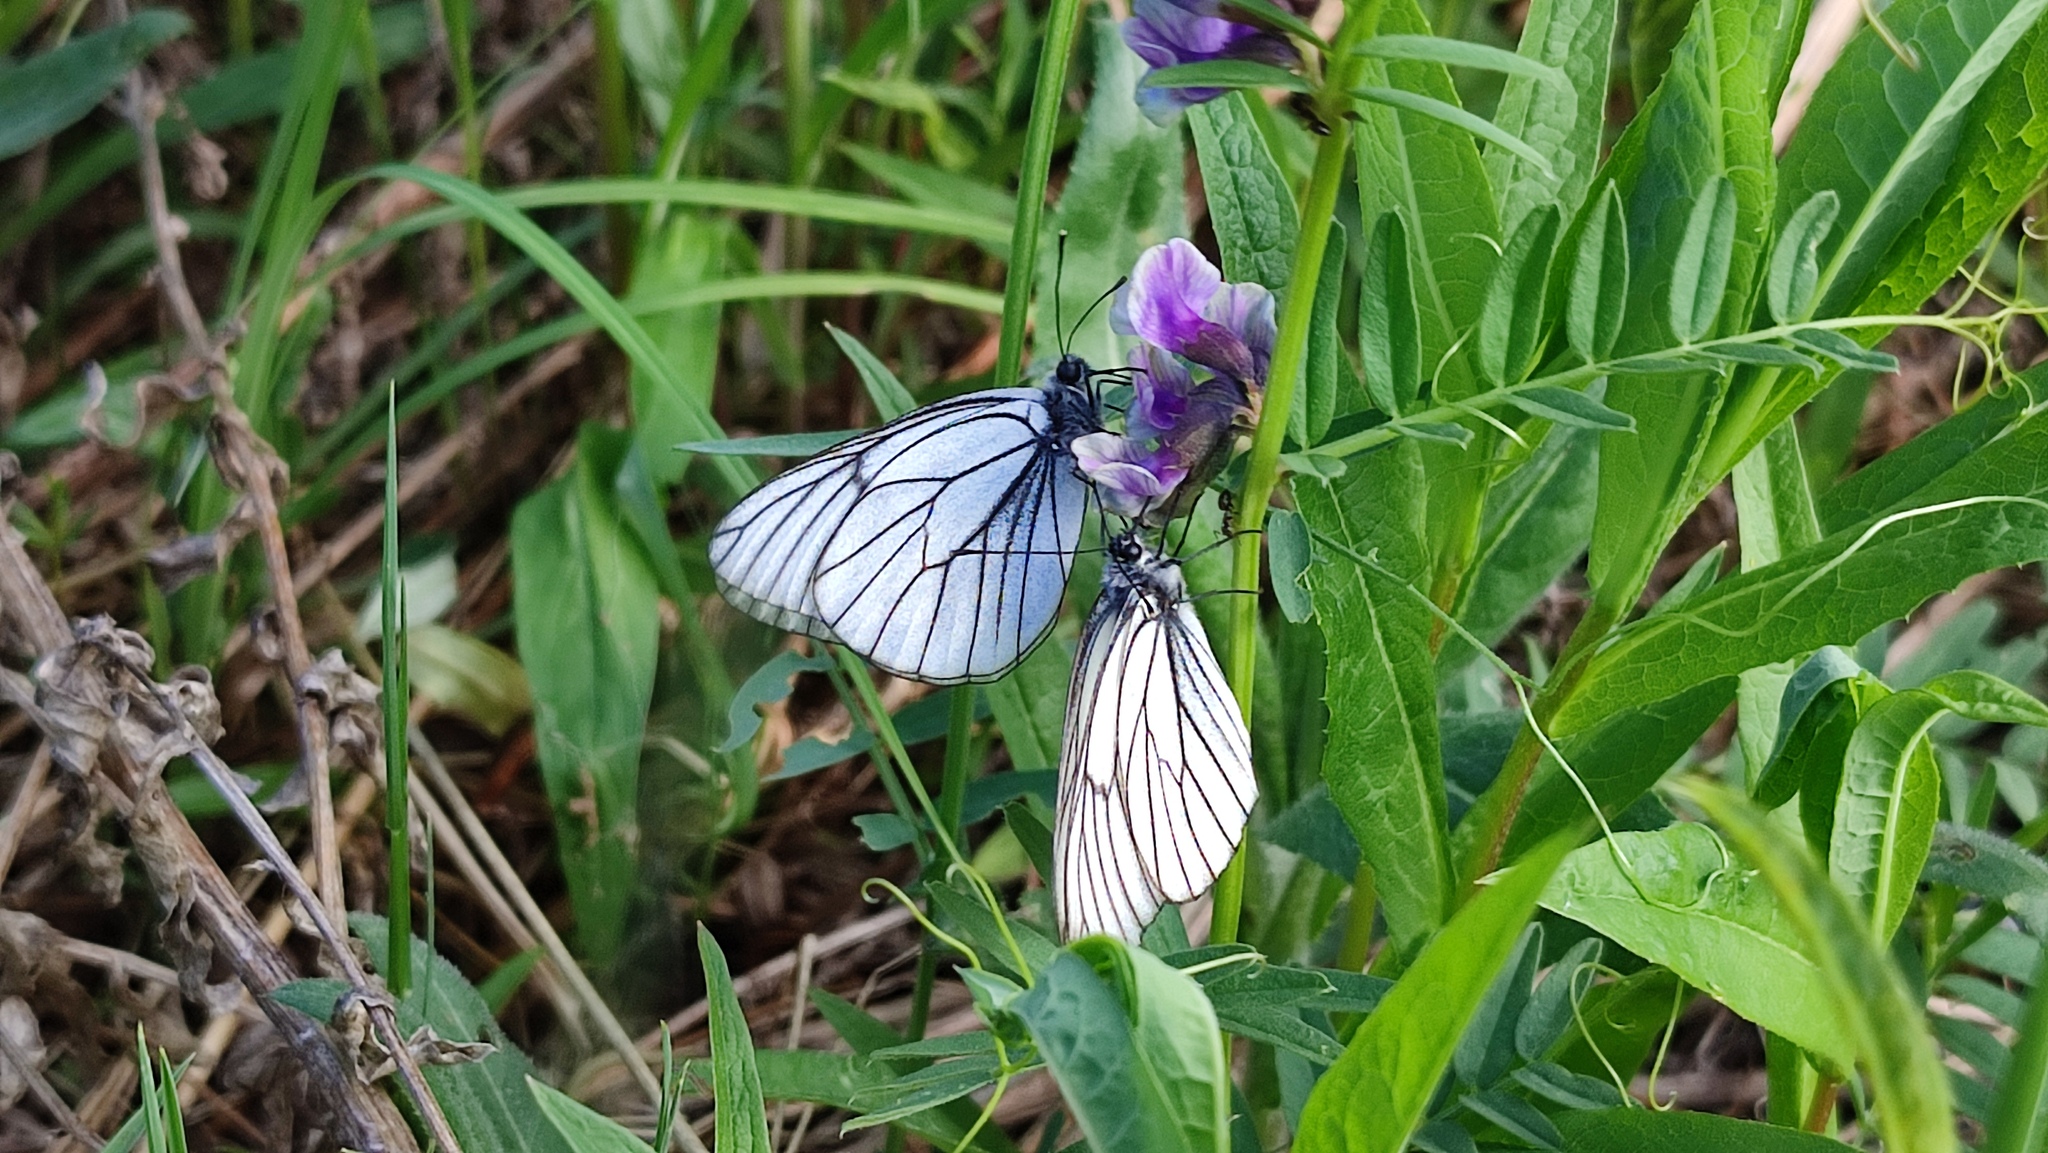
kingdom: Animalia
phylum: Arthropoda
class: Insecta
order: Lepidoptera
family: Pieridae
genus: Aporia
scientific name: Aporia crataegi
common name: Black-veined white
